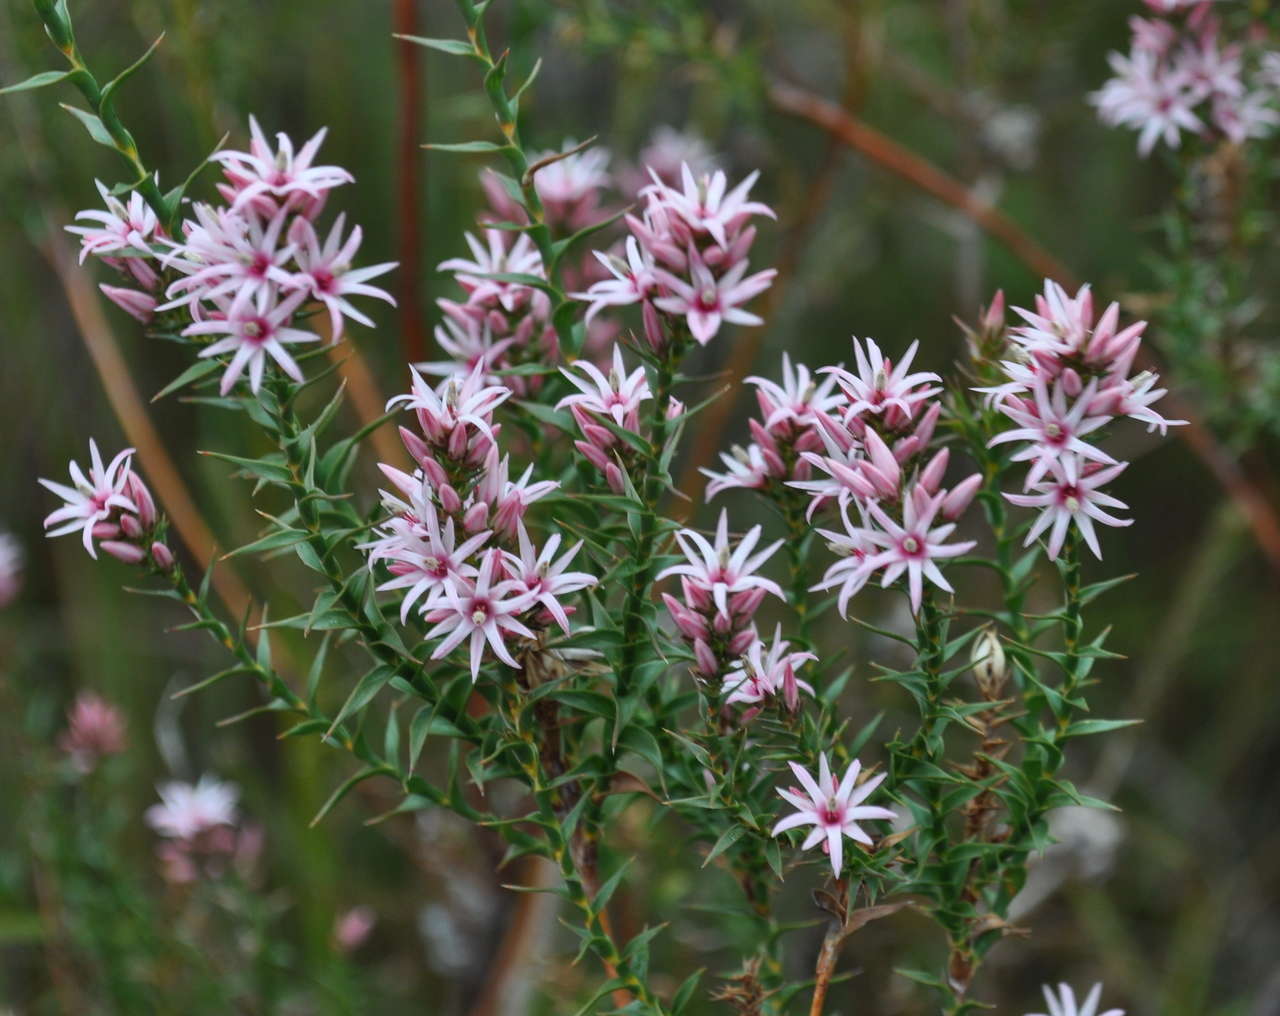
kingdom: Plantae
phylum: Tracheophyta
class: Magnoliopsida
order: Ericales
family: Ericaceae
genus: Sprengelia
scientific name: Sprengelia incarnata
